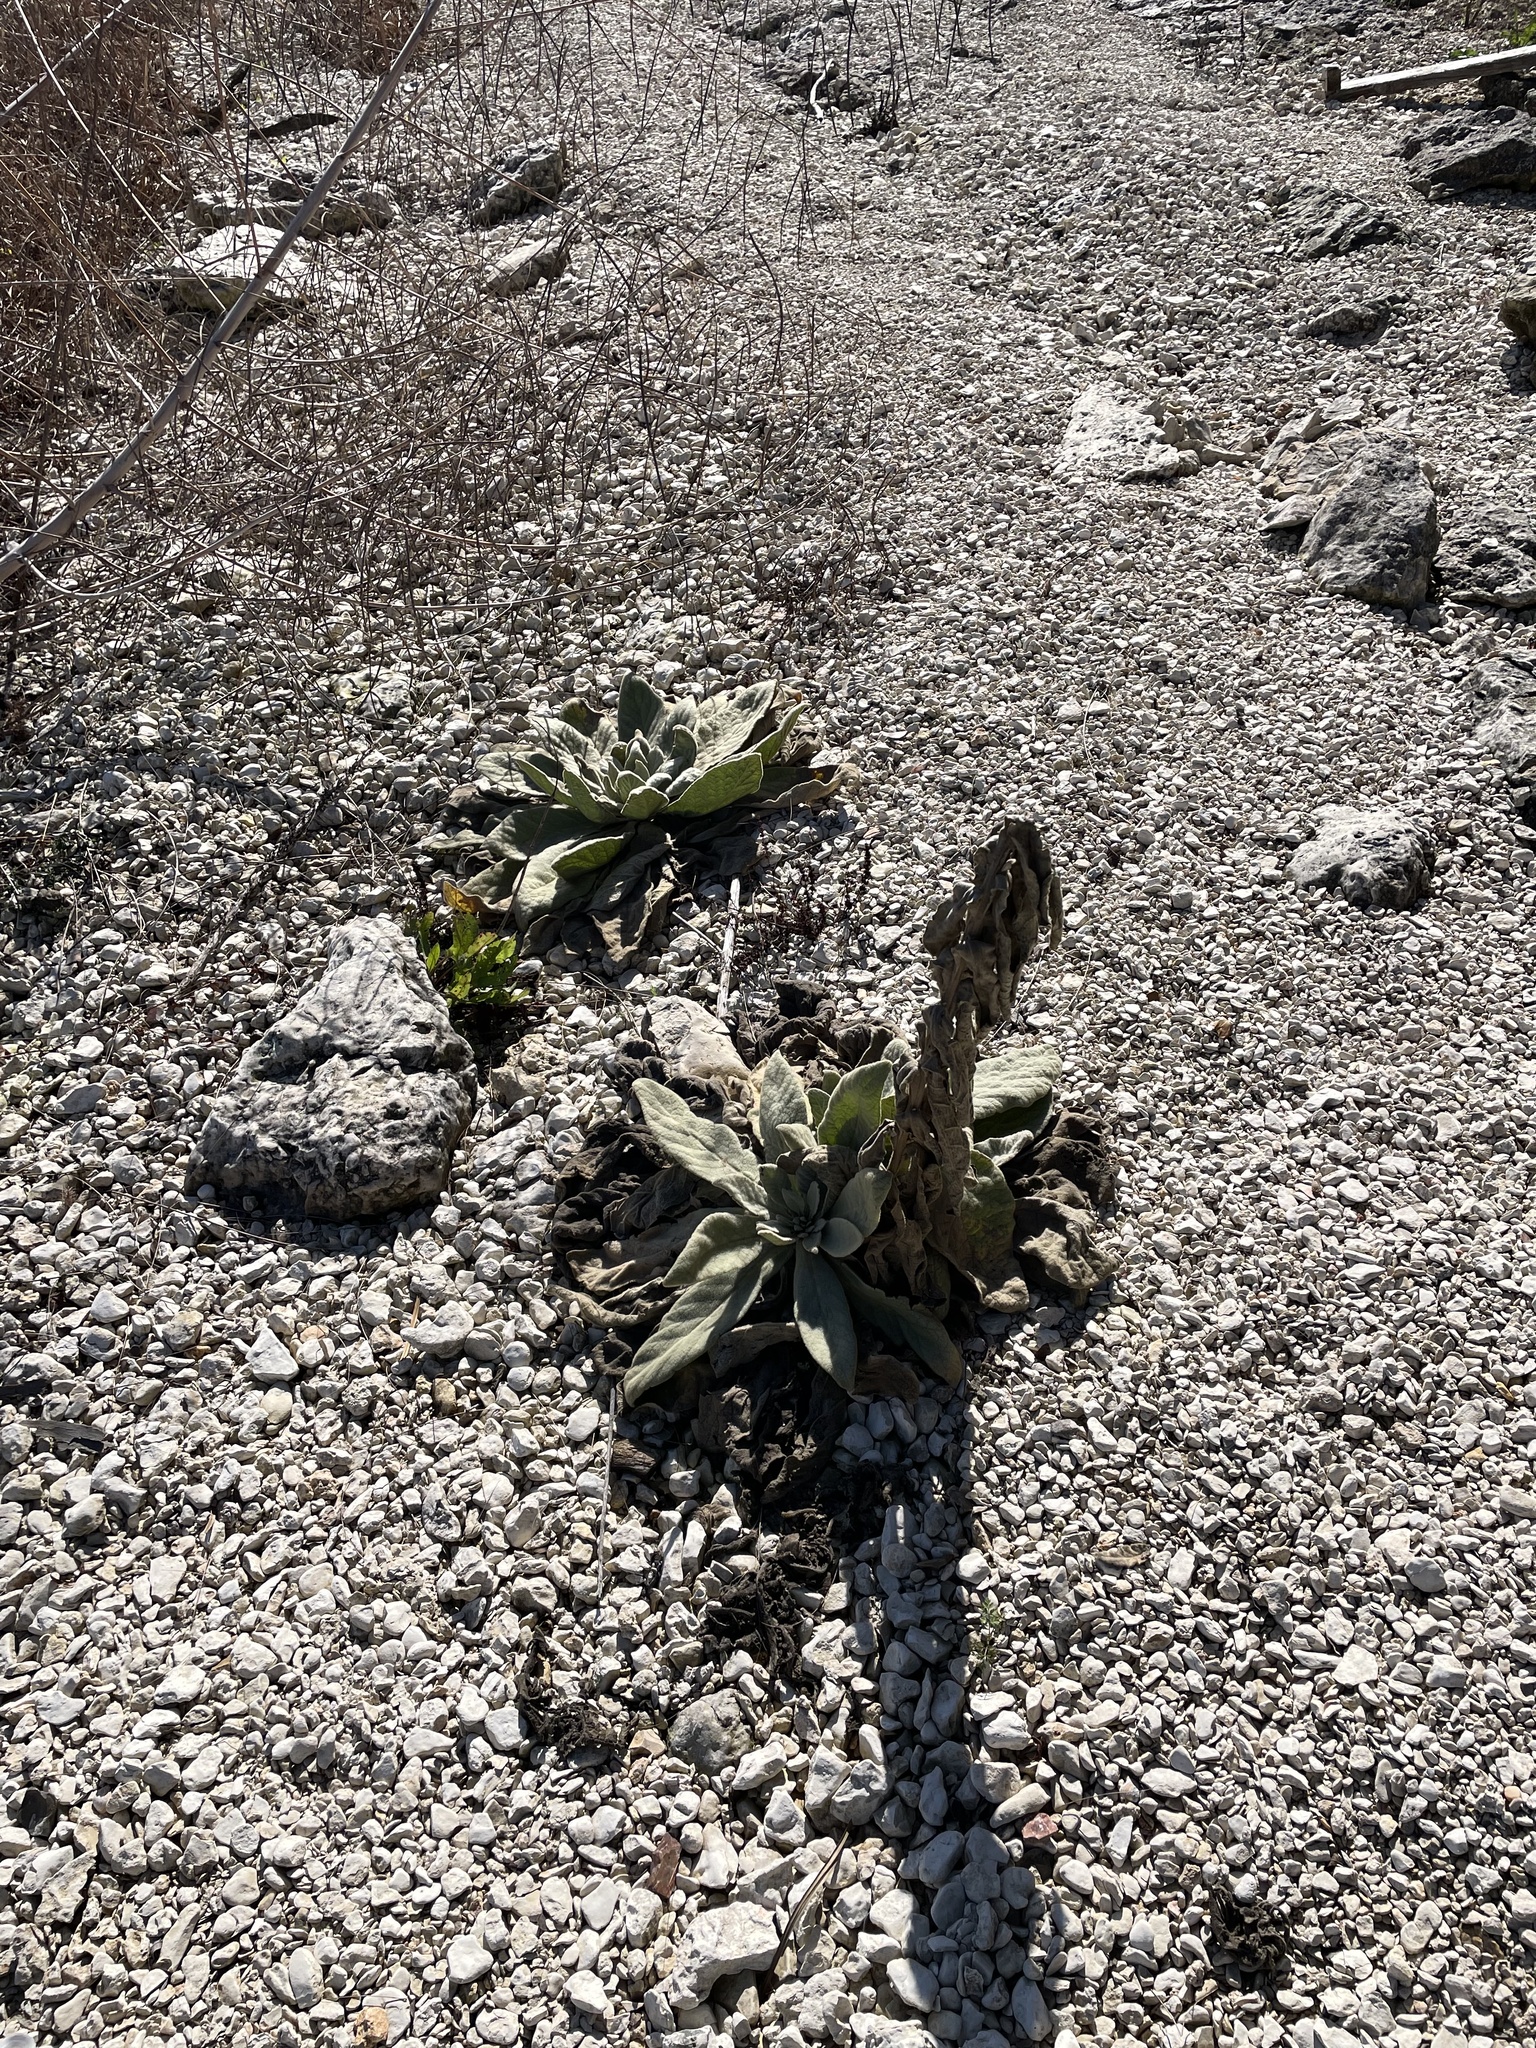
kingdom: Plantae
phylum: Tracheophyta
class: Magnoliopsida
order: Lamiales
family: Scrophulariaceae
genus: Verbascum
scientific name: Verbascum thapsus
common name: Common mullein
